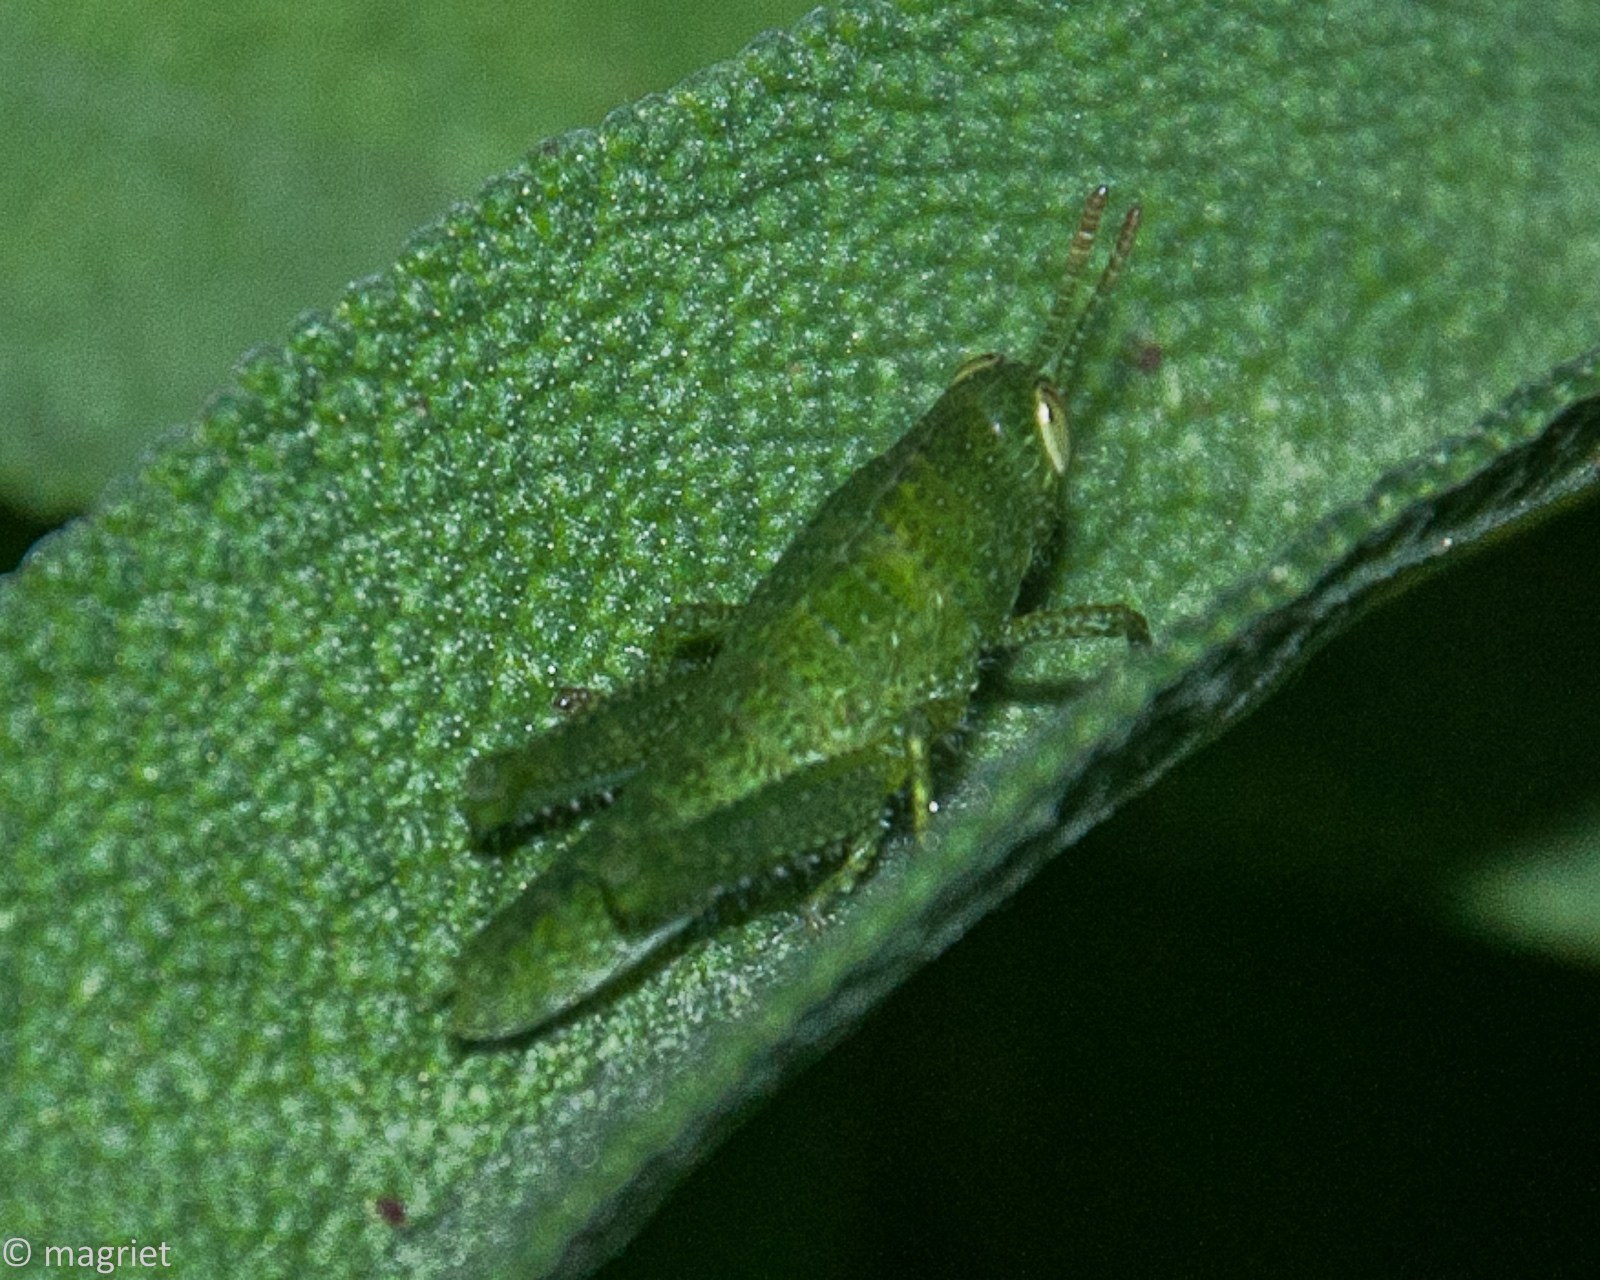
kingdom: Animalia
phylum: Arthropoda
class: Insecta
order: Orthoptera
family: Acrididae
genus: Acanthacris
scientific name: Acanthacris ruficornis
